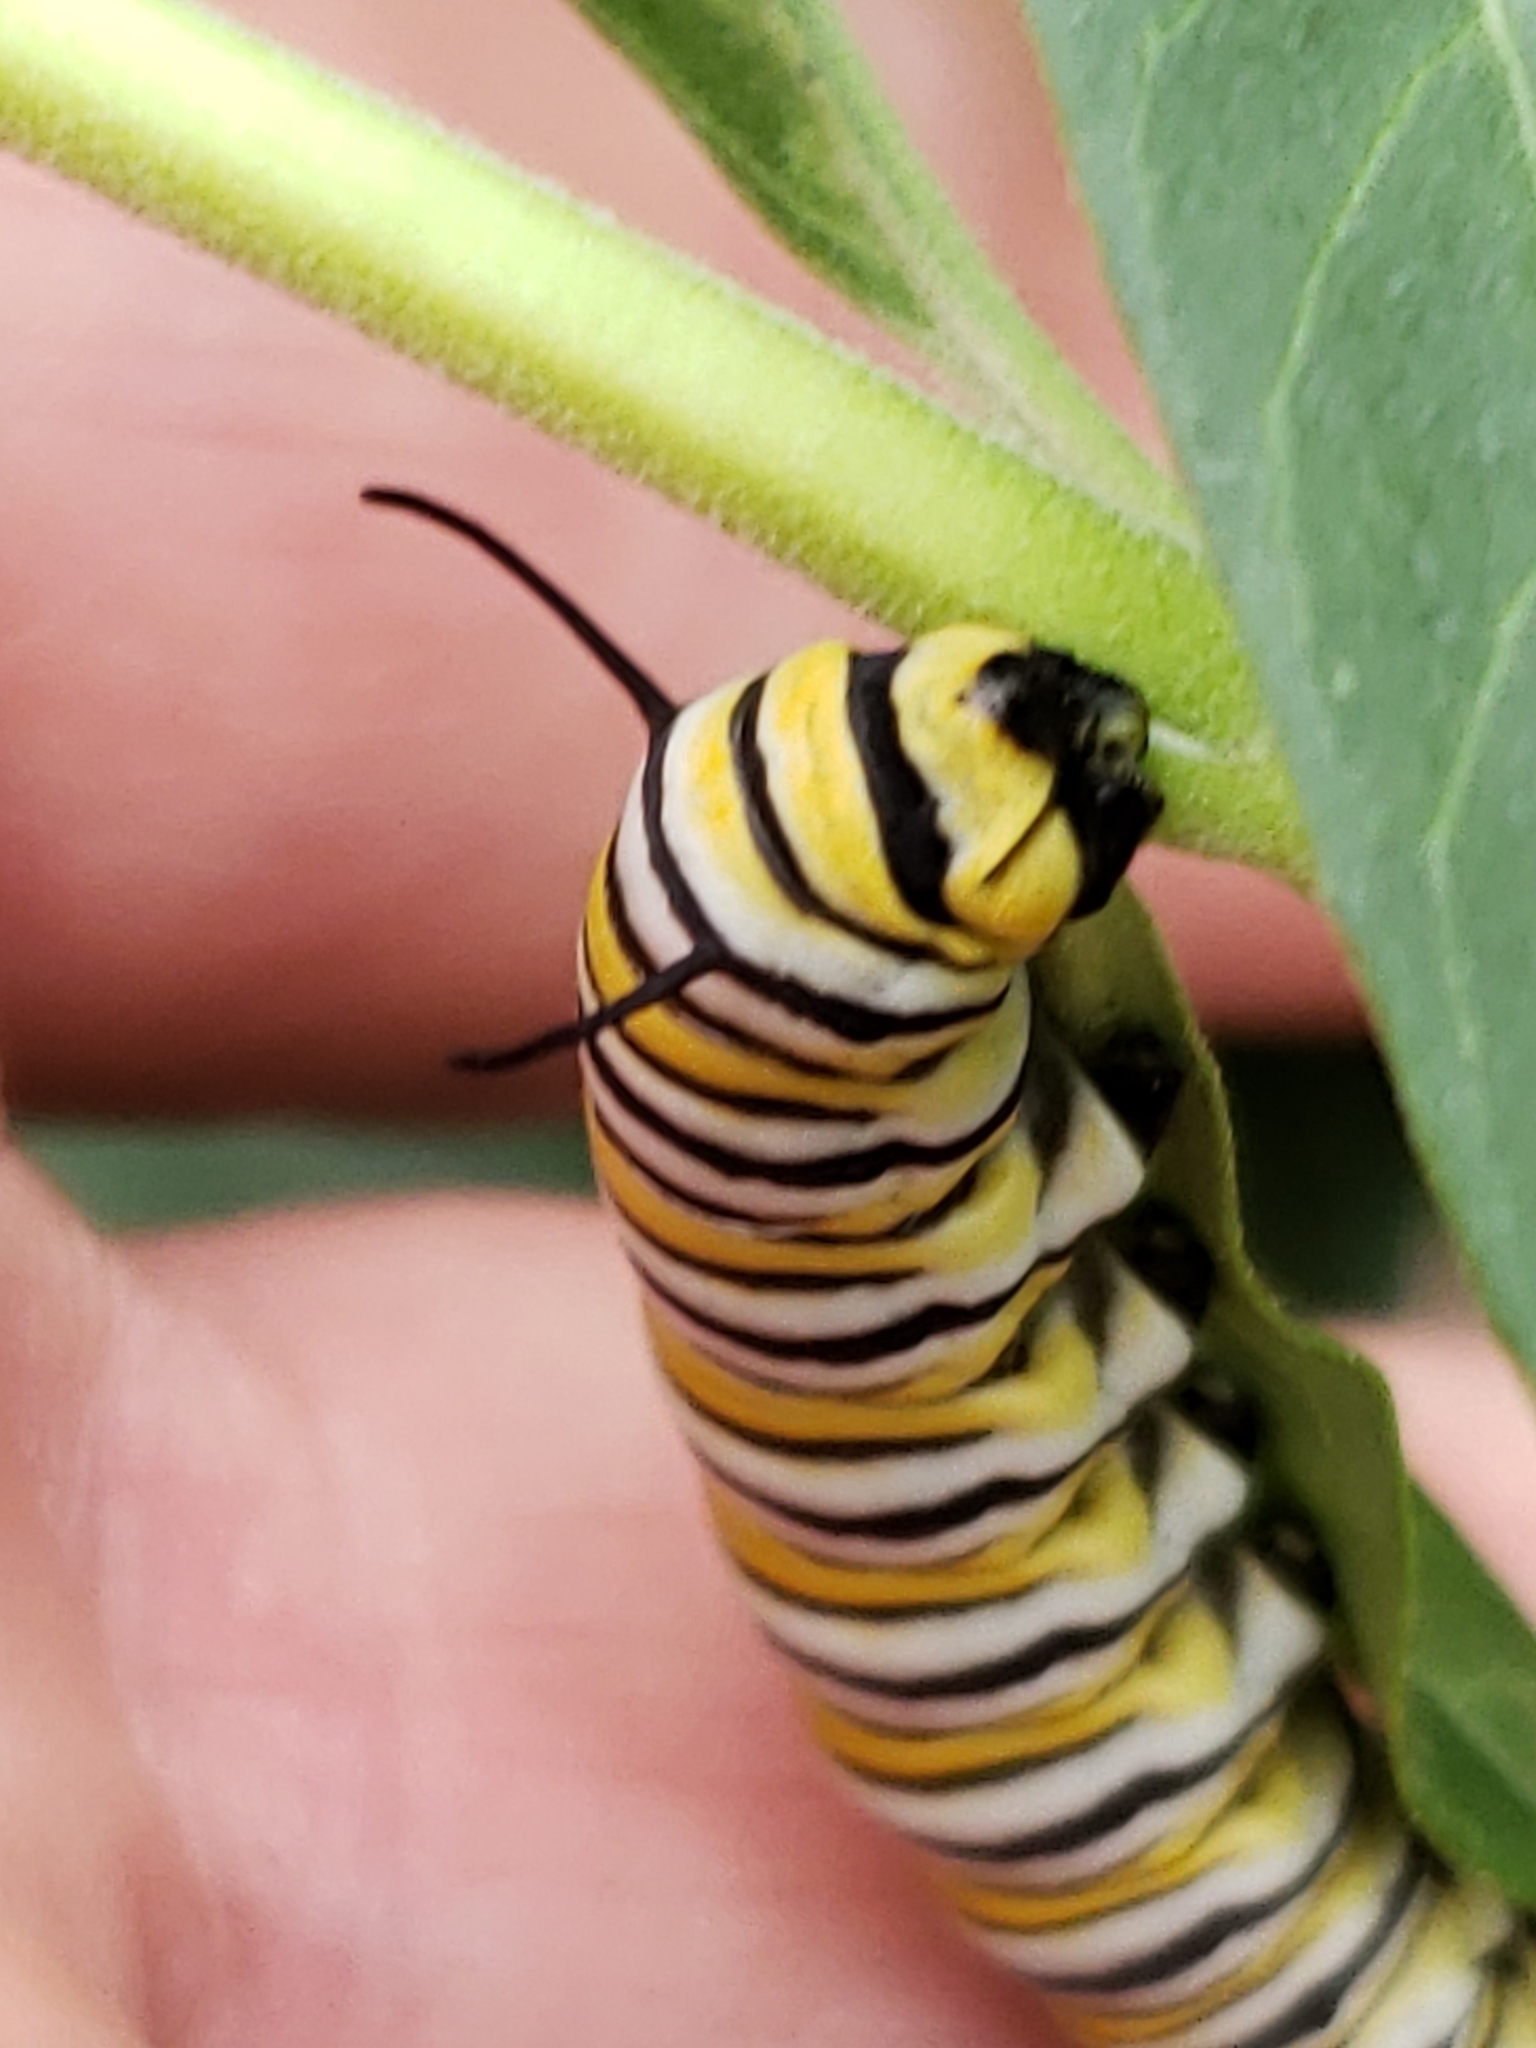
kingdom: Animalia
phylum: Arthropoda
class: Insecta
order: Lepidoptera
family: Nymphalidae
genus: Danaus
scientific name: Danaus plexippus
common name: Monarch
